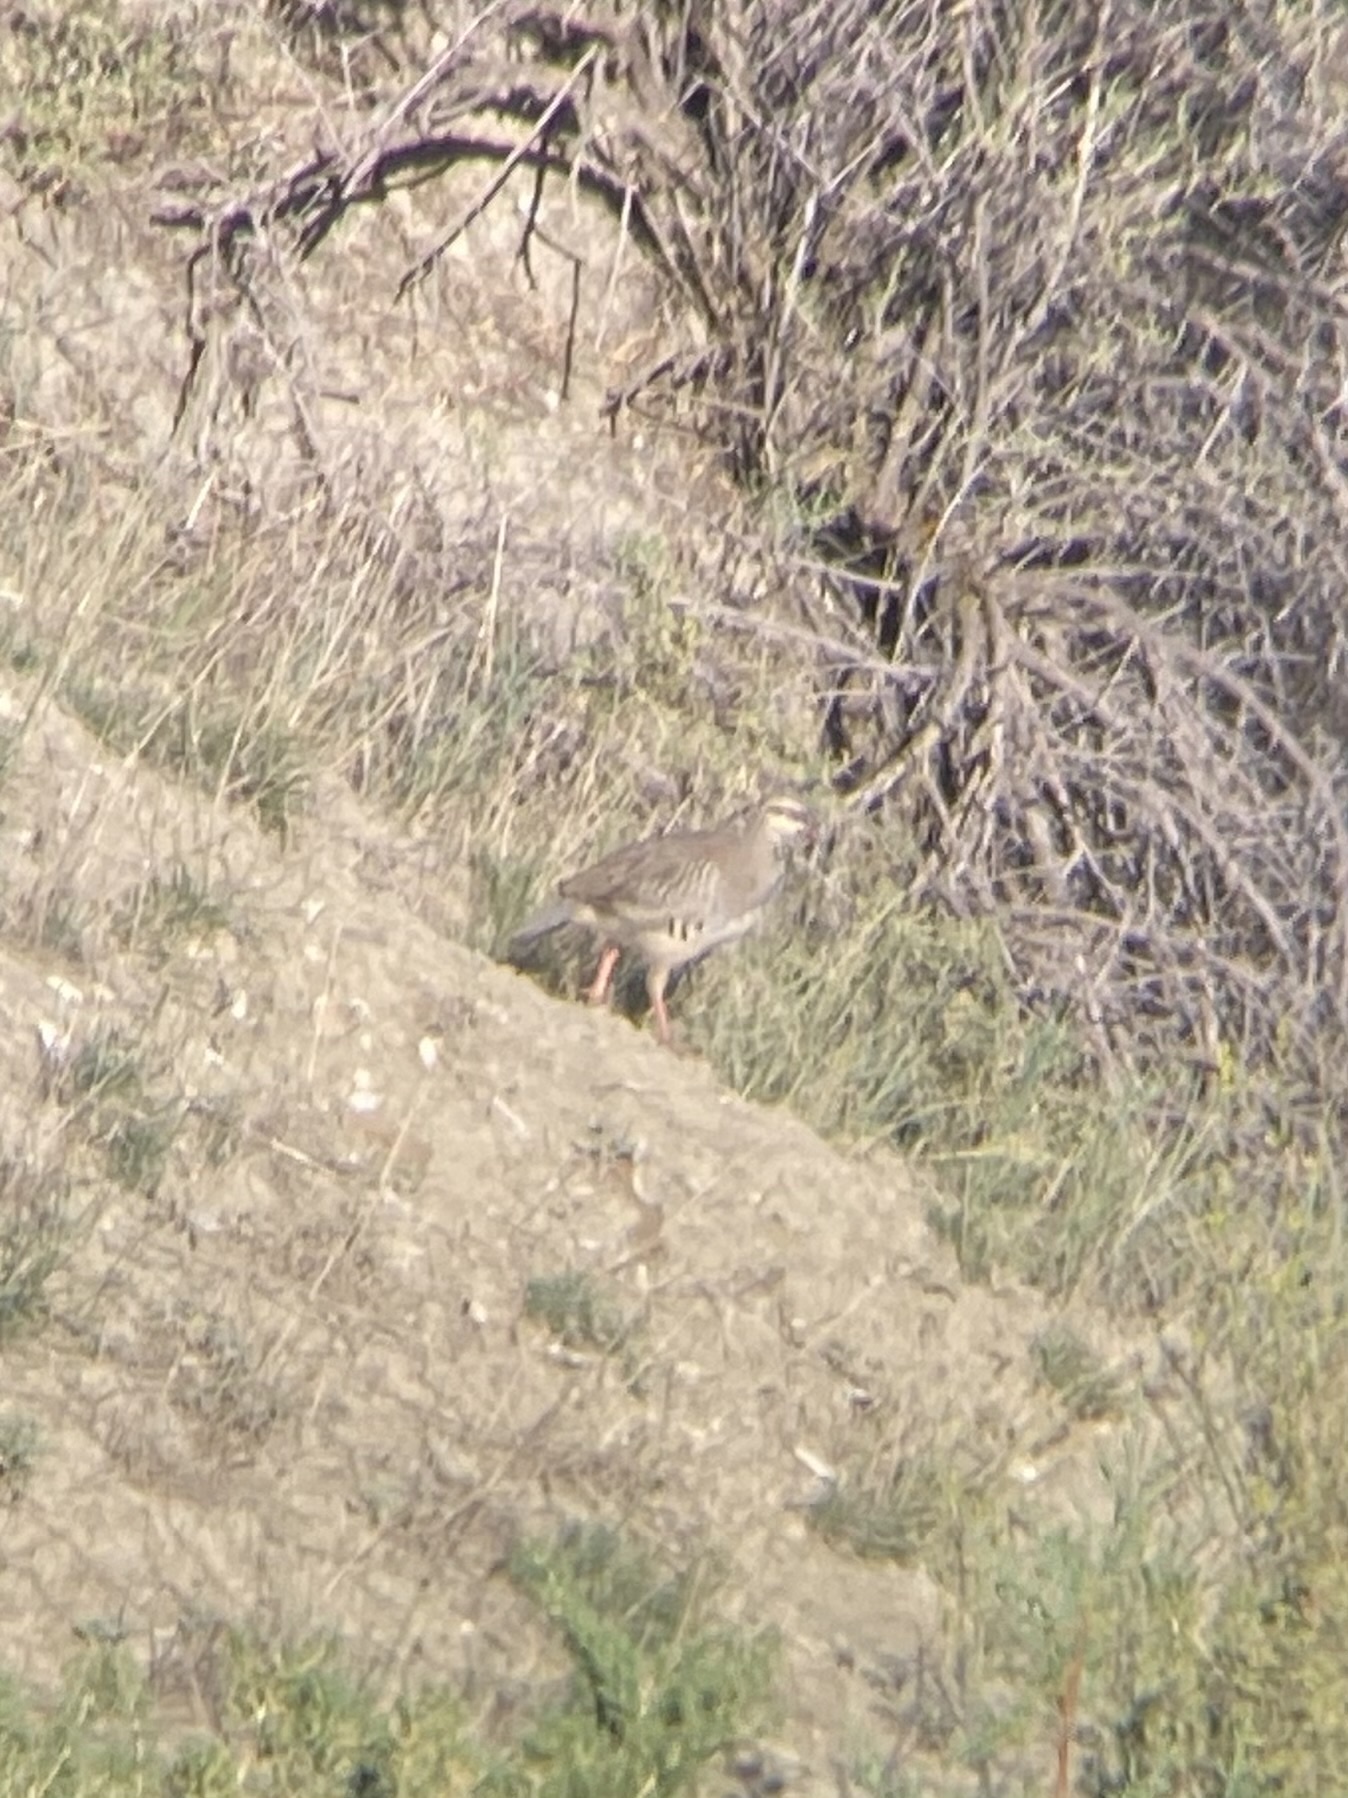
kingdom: Animalia
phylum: Chordata
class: Aves
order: Galliformes
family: Phasianidae
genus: Alectoris
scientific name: Alectoris chukar
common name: Chukar
